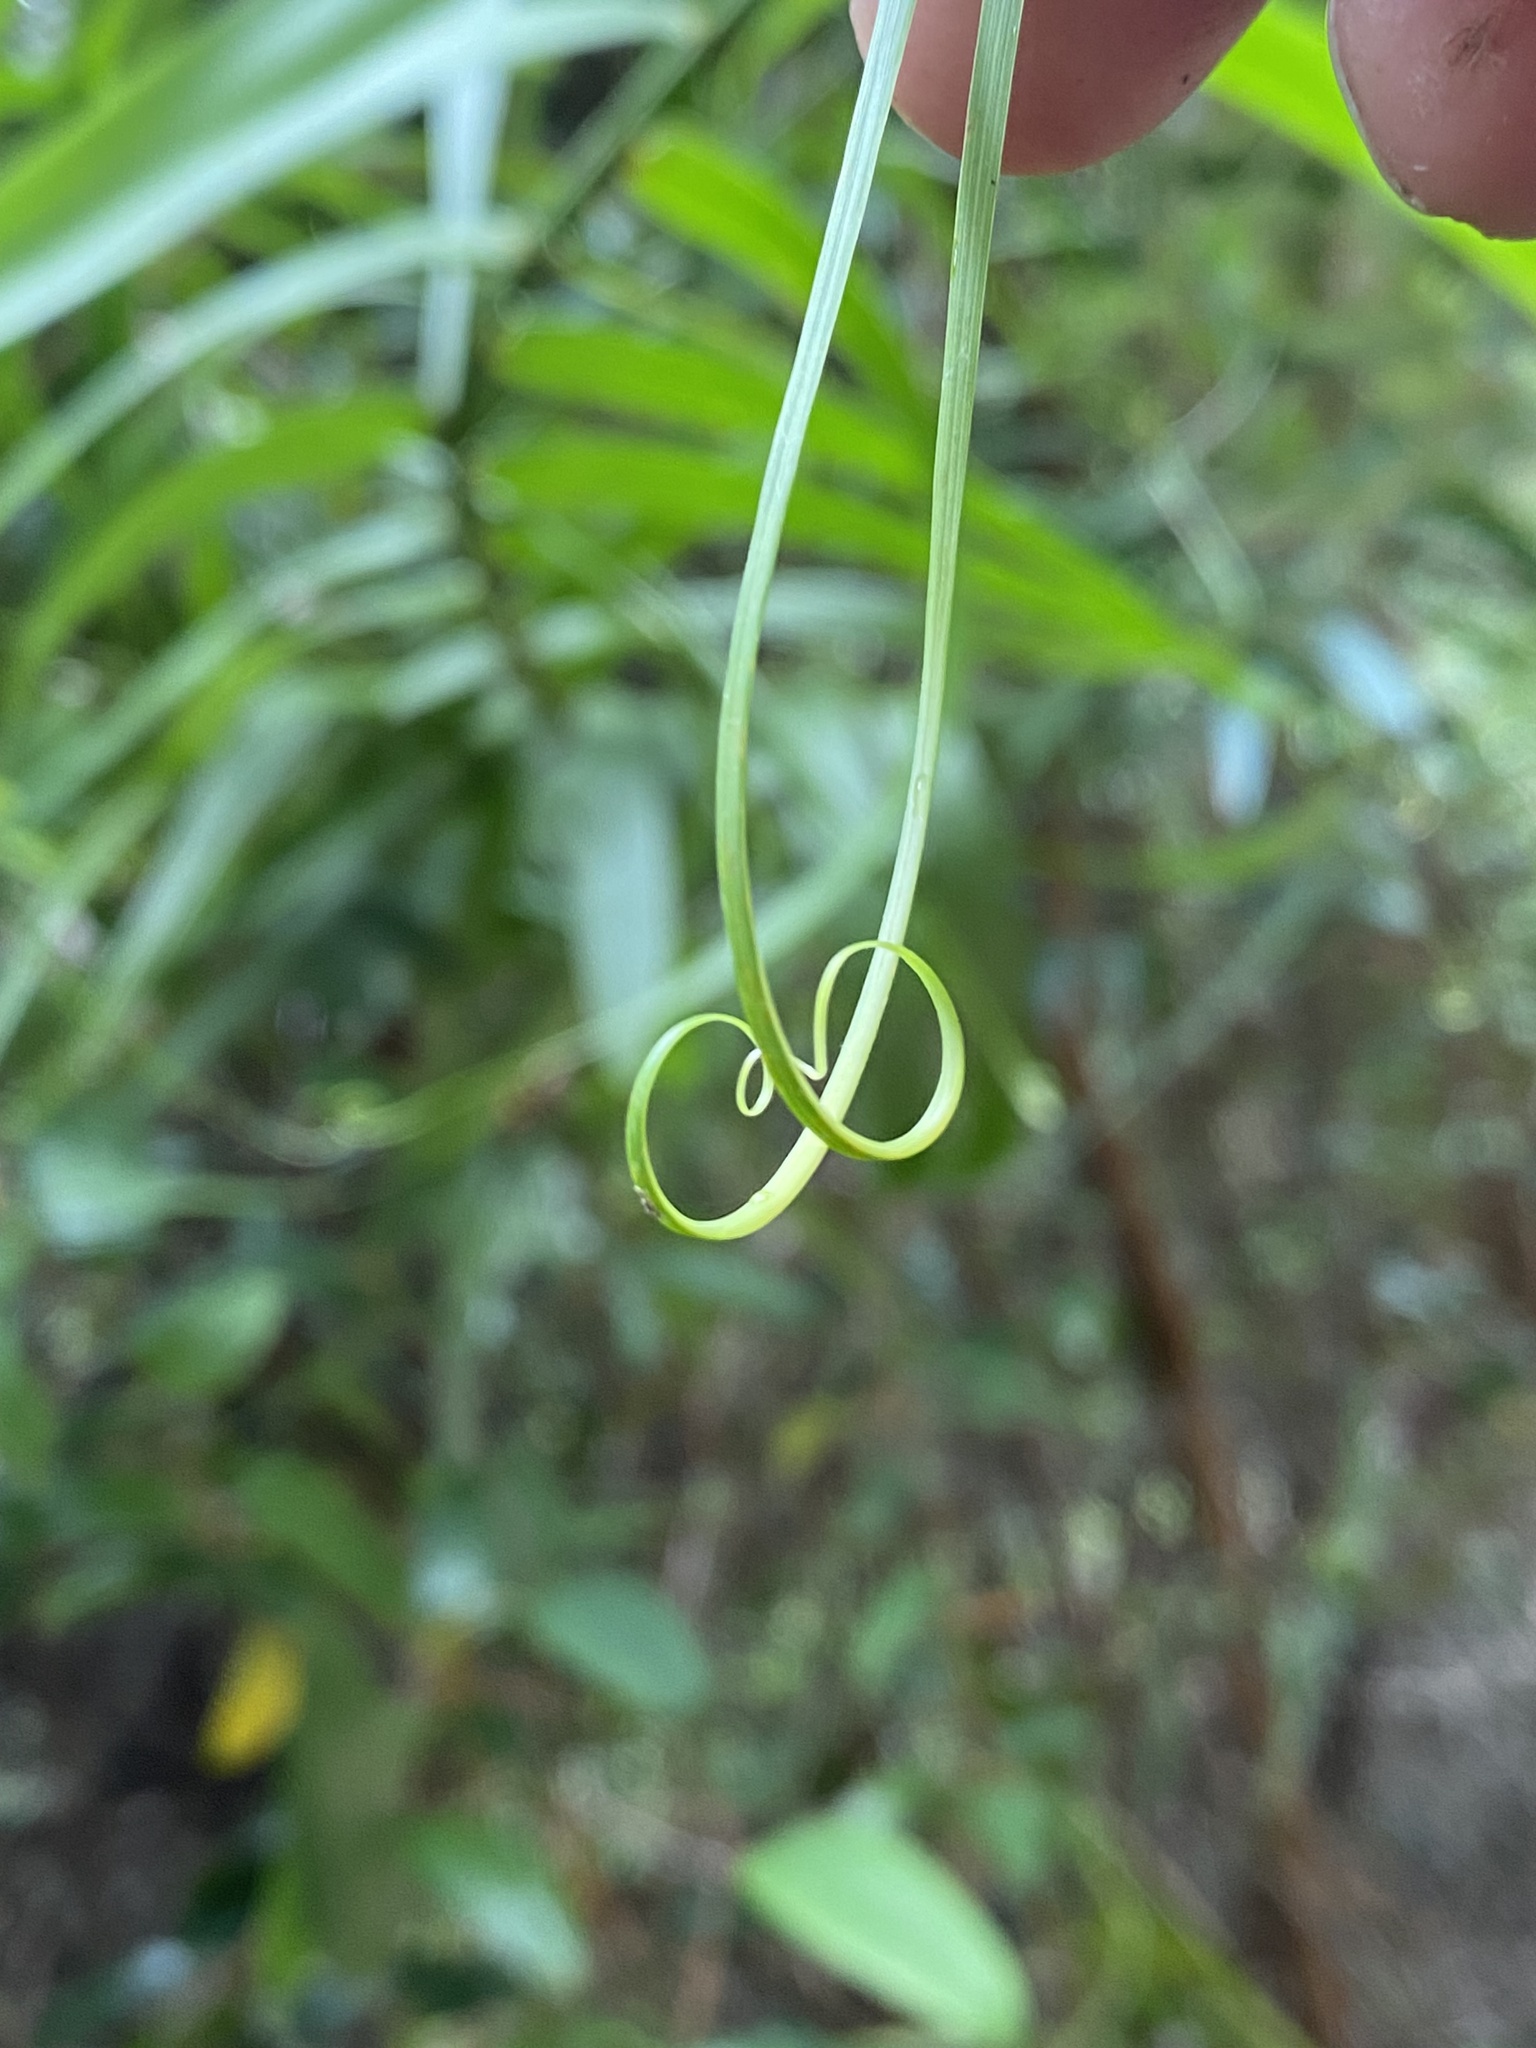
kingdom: Plantae
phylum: Tracheophyta
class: Liliopsida
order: Poales
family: Flagellariaceae
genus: Flagellaria
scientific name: Flagellaria indica
